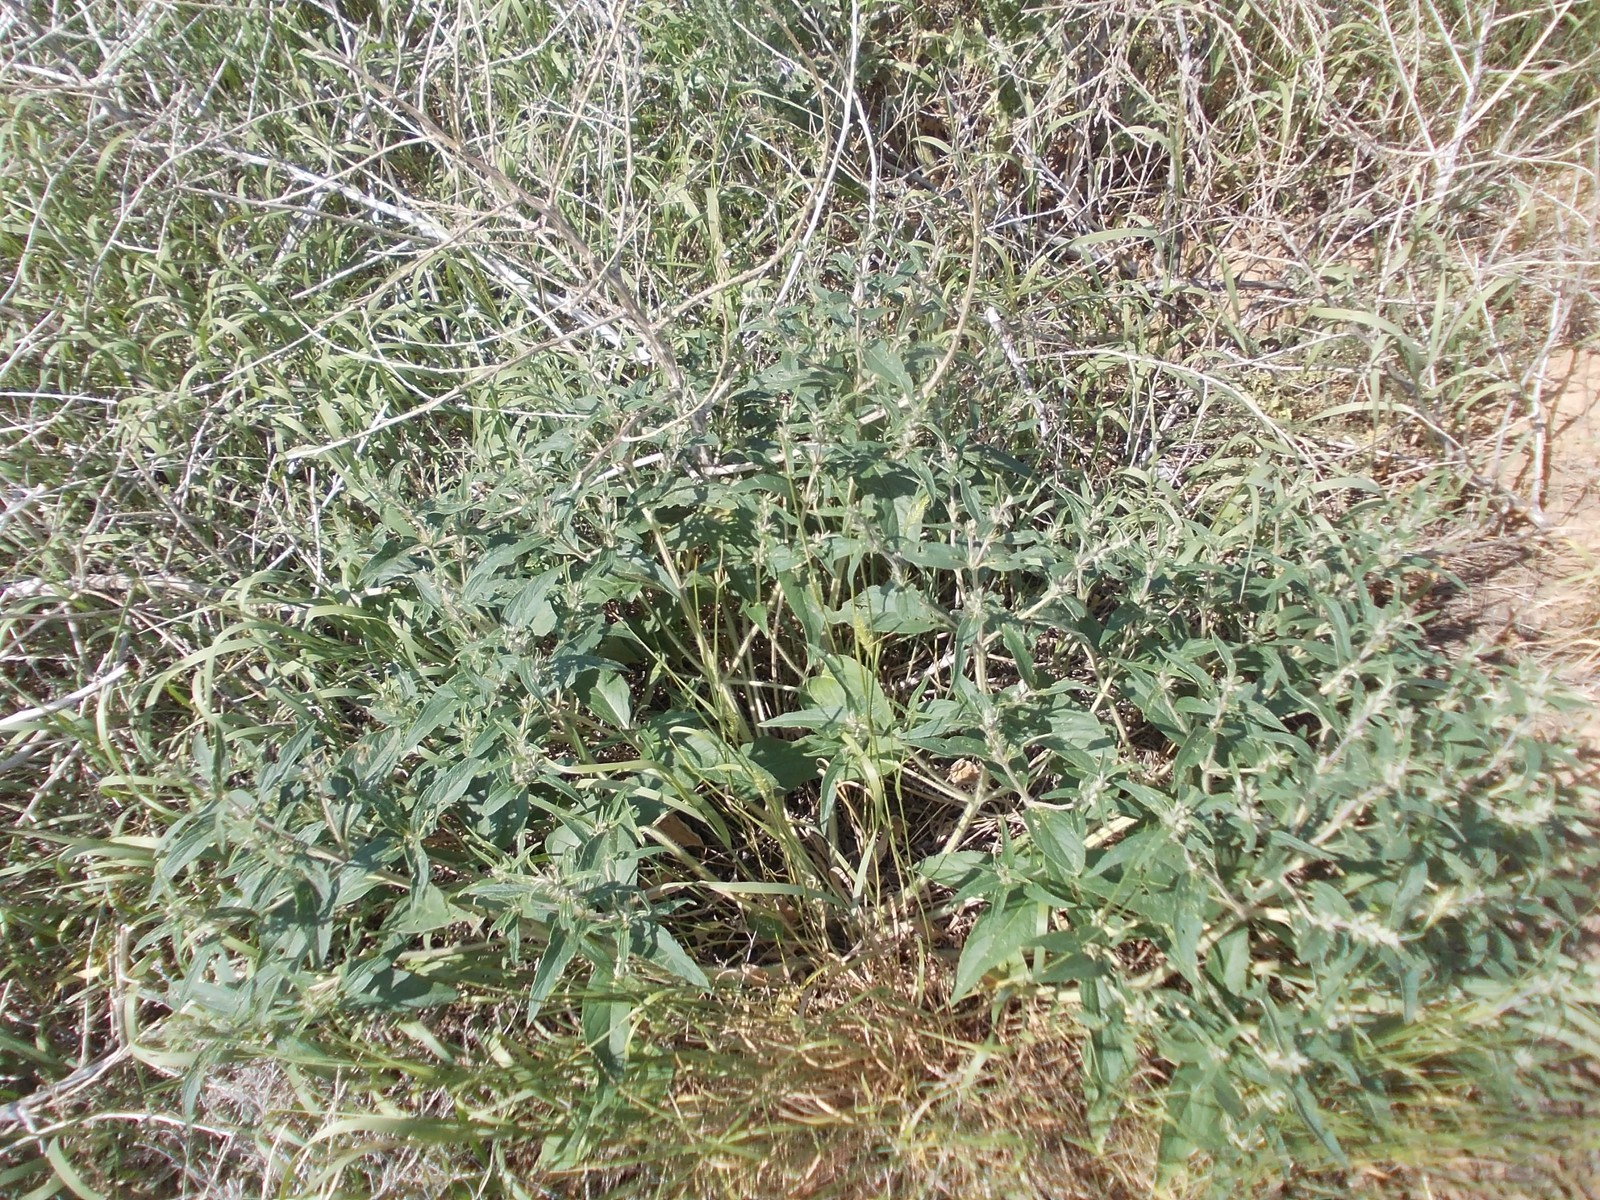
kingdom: Plantae
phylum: Tracheophyta
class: Magnoliopsida
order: Lamiales
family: Lamiaceae
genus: Phlomis
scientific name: Phlomis herba-venti
